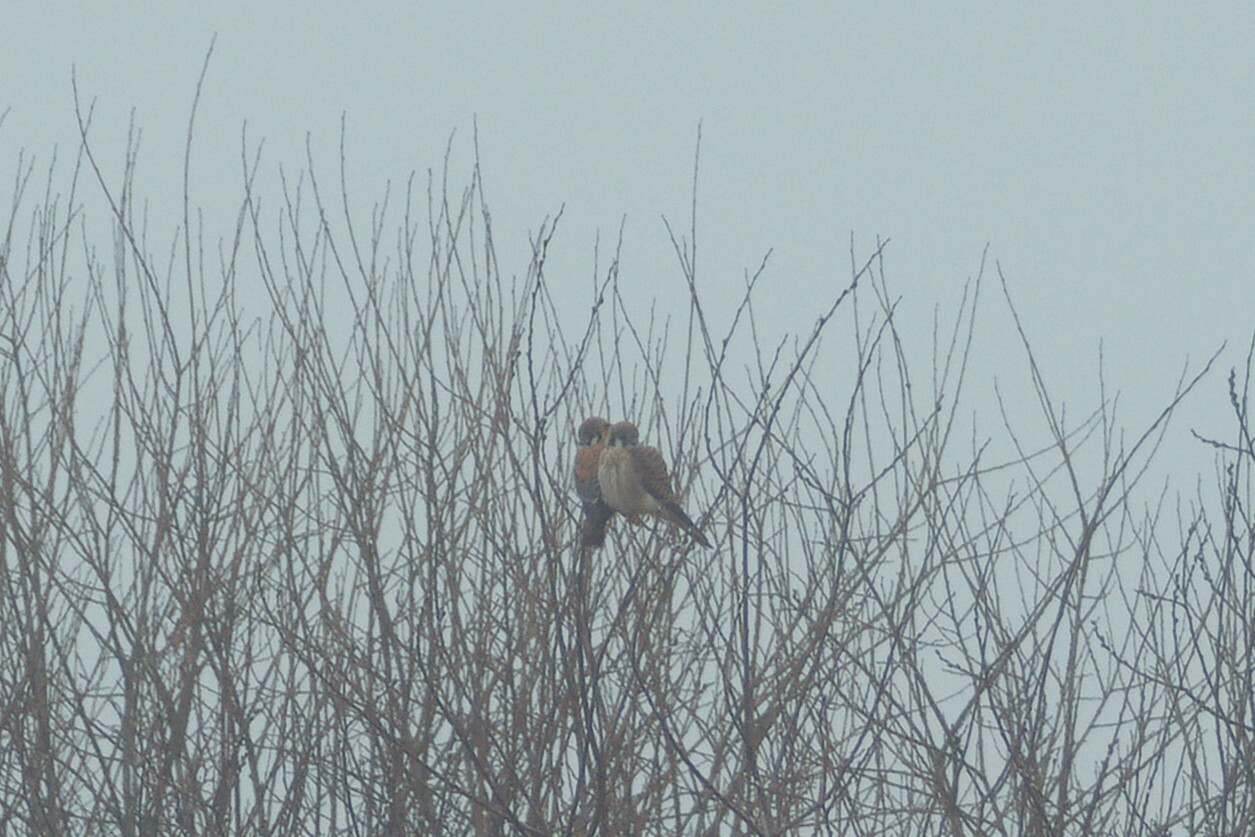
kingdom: Animalia
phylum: Chordata
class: Aves
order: Falconiformes
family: Falconidae
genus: Falco
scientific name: Falco sparverius
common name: American kestrel
